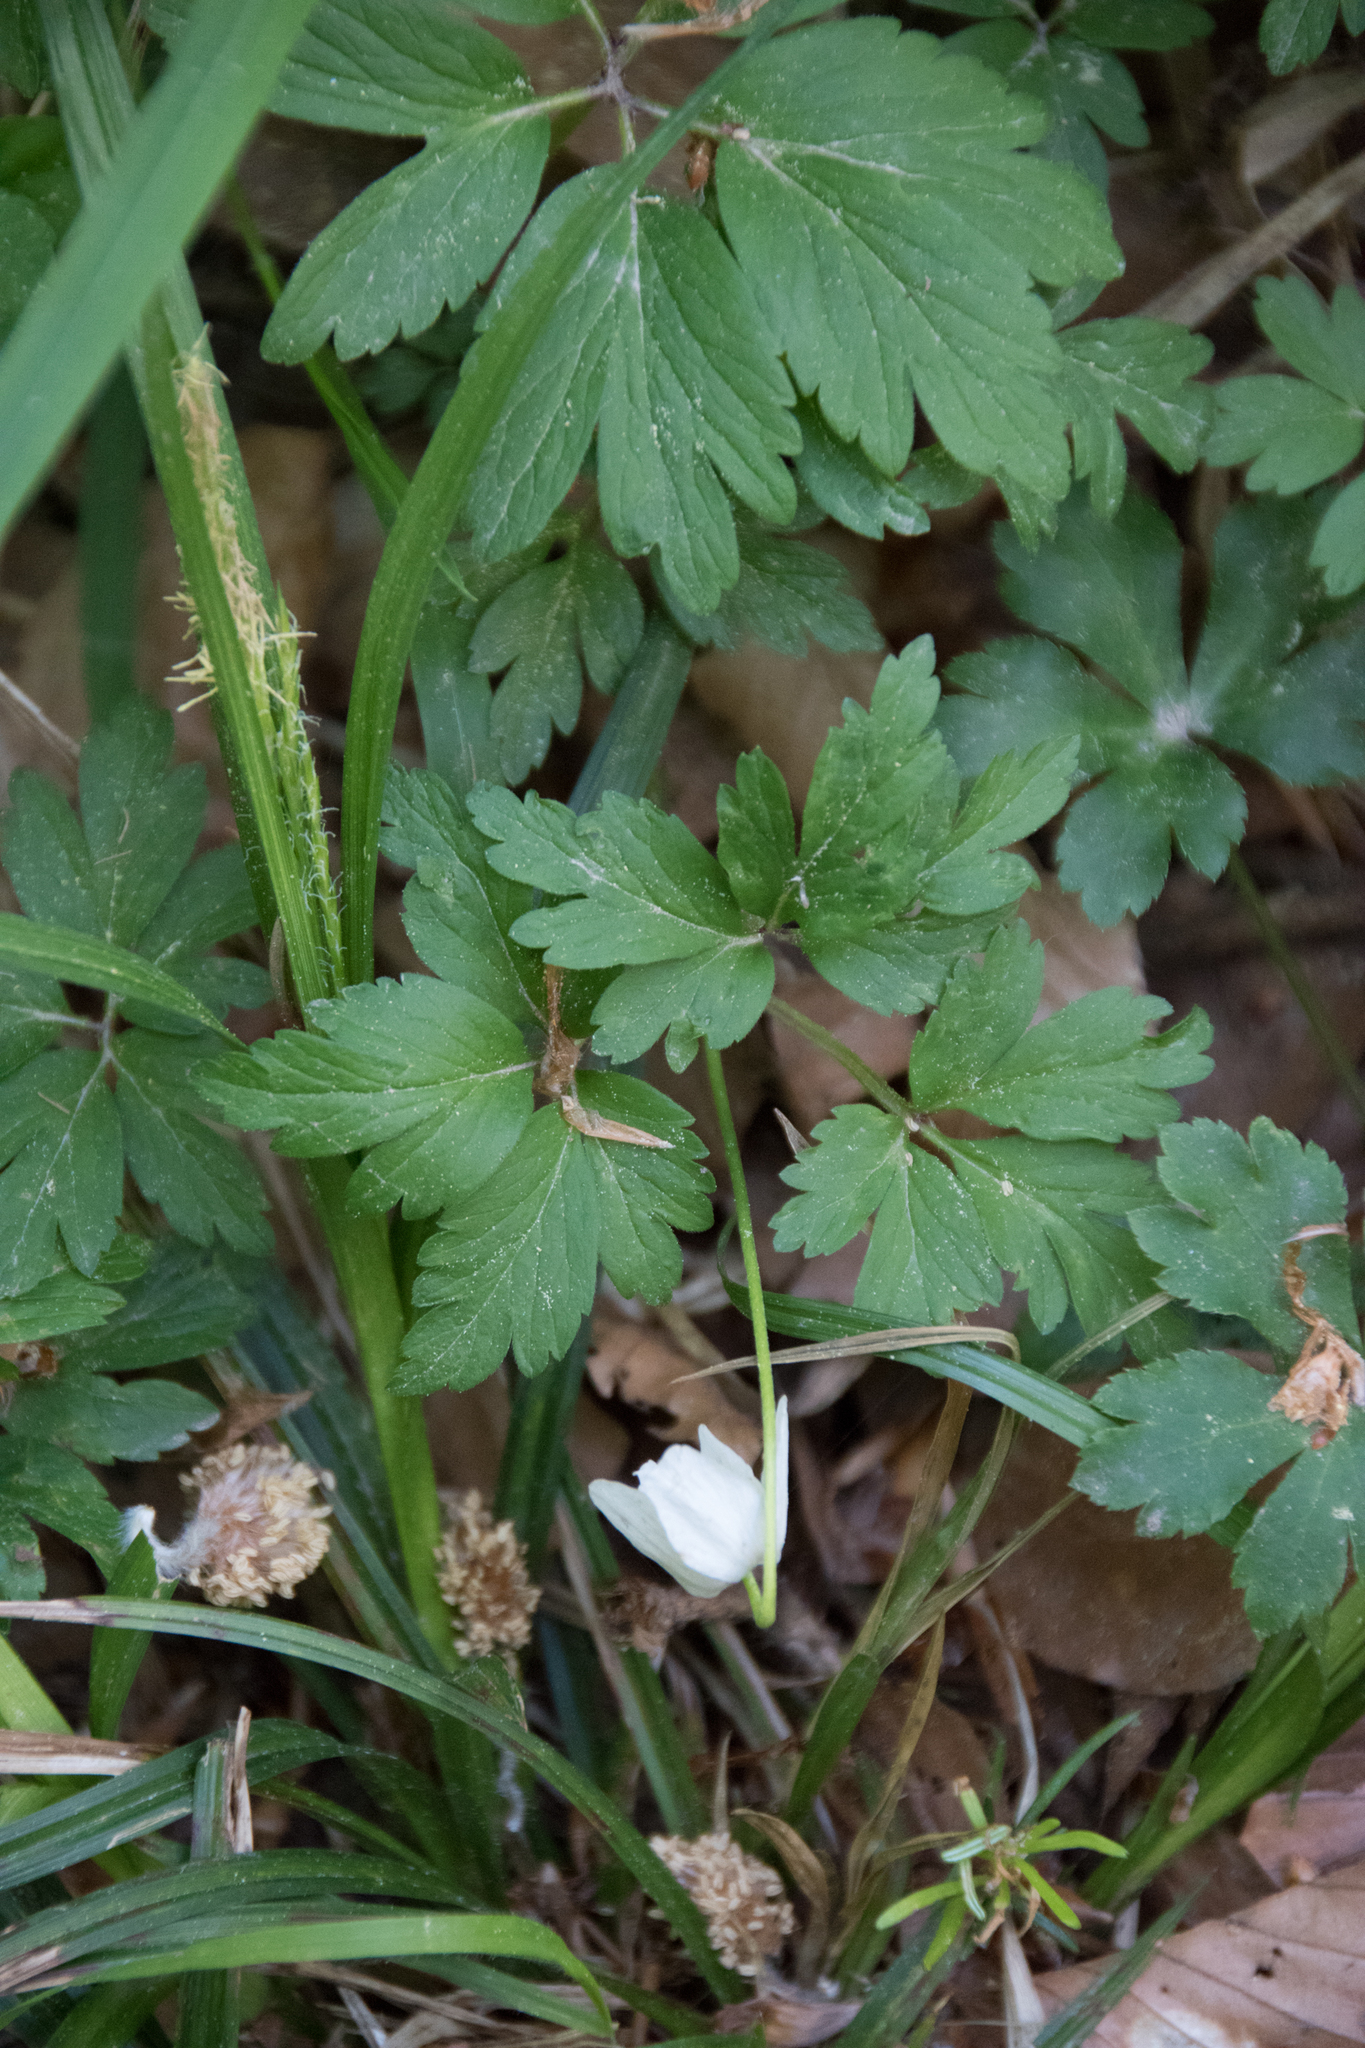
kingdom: Plantae
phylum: Tracheophyta
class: Magnoliopsida
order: Ranunculales
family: Ranunculaceae
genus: Anemone
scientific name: Anemone nemorosa
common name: Wood anemone
